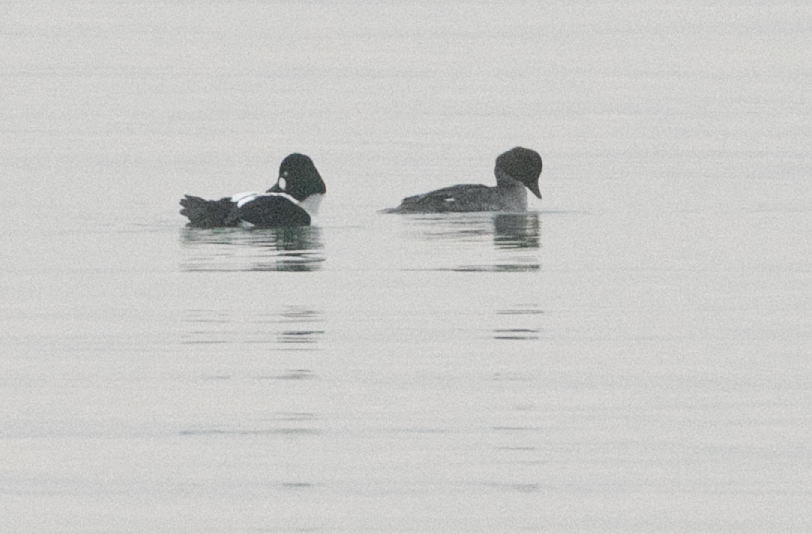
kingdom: Animalia
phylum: Chordata
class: Aves
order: Anseriformes
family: Anatidae
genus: Bucephala
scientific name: Bucephala clangula
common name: Common goldeneye
